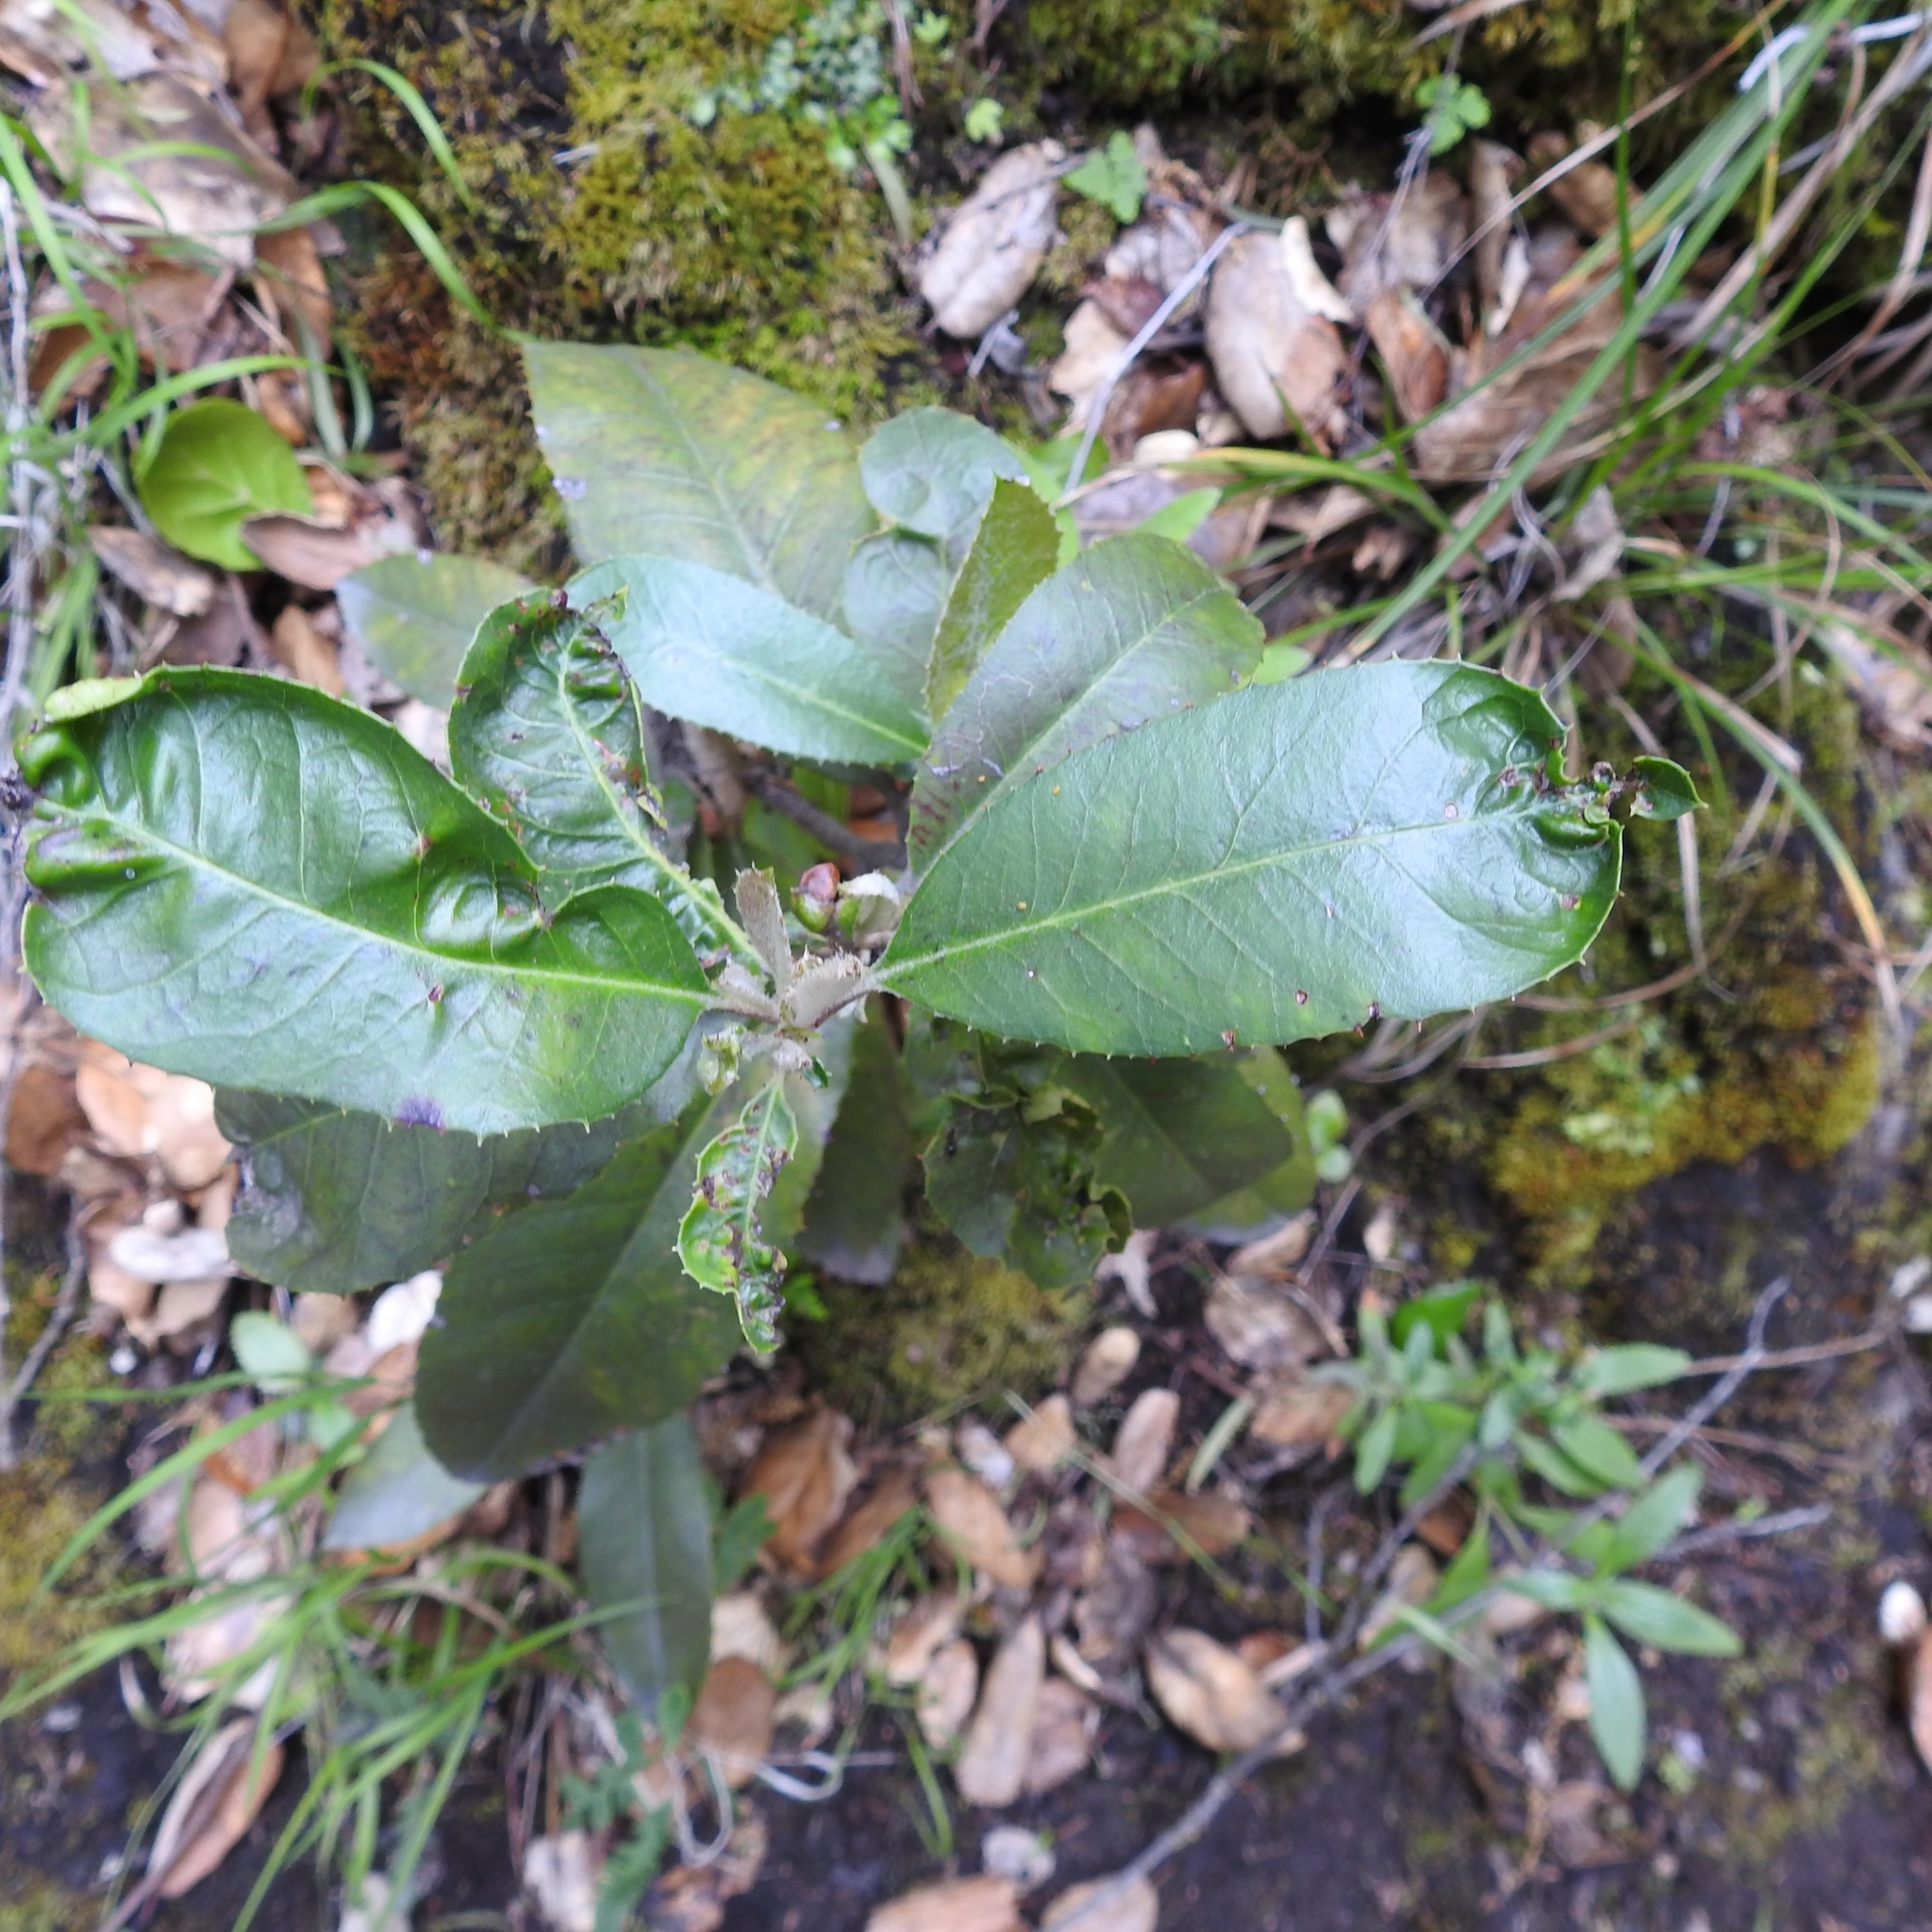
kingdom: Plantae
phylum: Tracheophyta
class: Magnoliopsida
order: Rosales
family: Rosaceae
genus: Heteromeles
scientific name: Heteromeles arbutifolia
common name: California-holly
